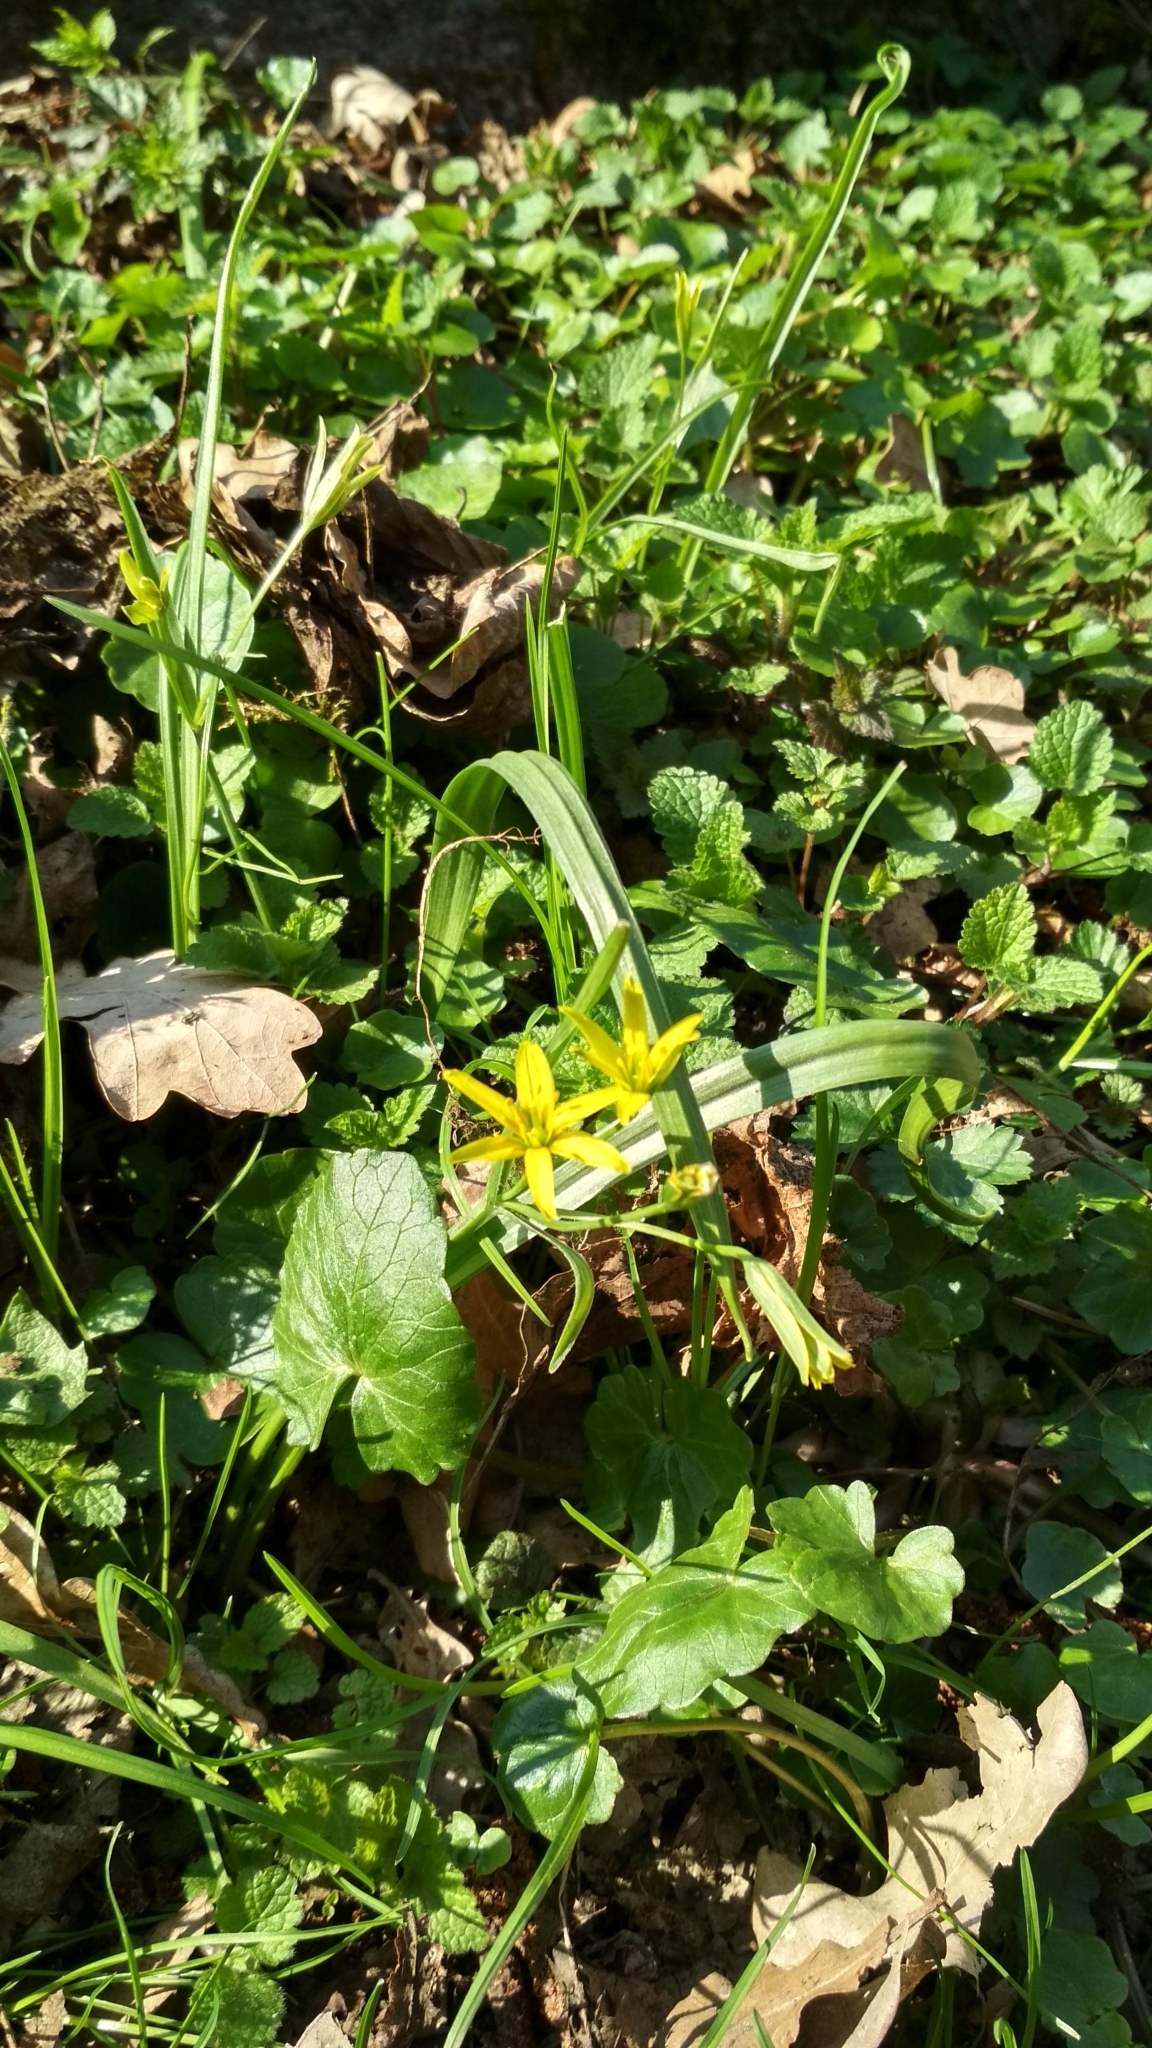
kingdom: Plantae
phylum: Tracheophyta
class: Liliopsida
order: Liliales
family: Liliaceae
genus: Gagea
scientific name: Gagea lutea
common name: Yellow star-of-bethlehem
